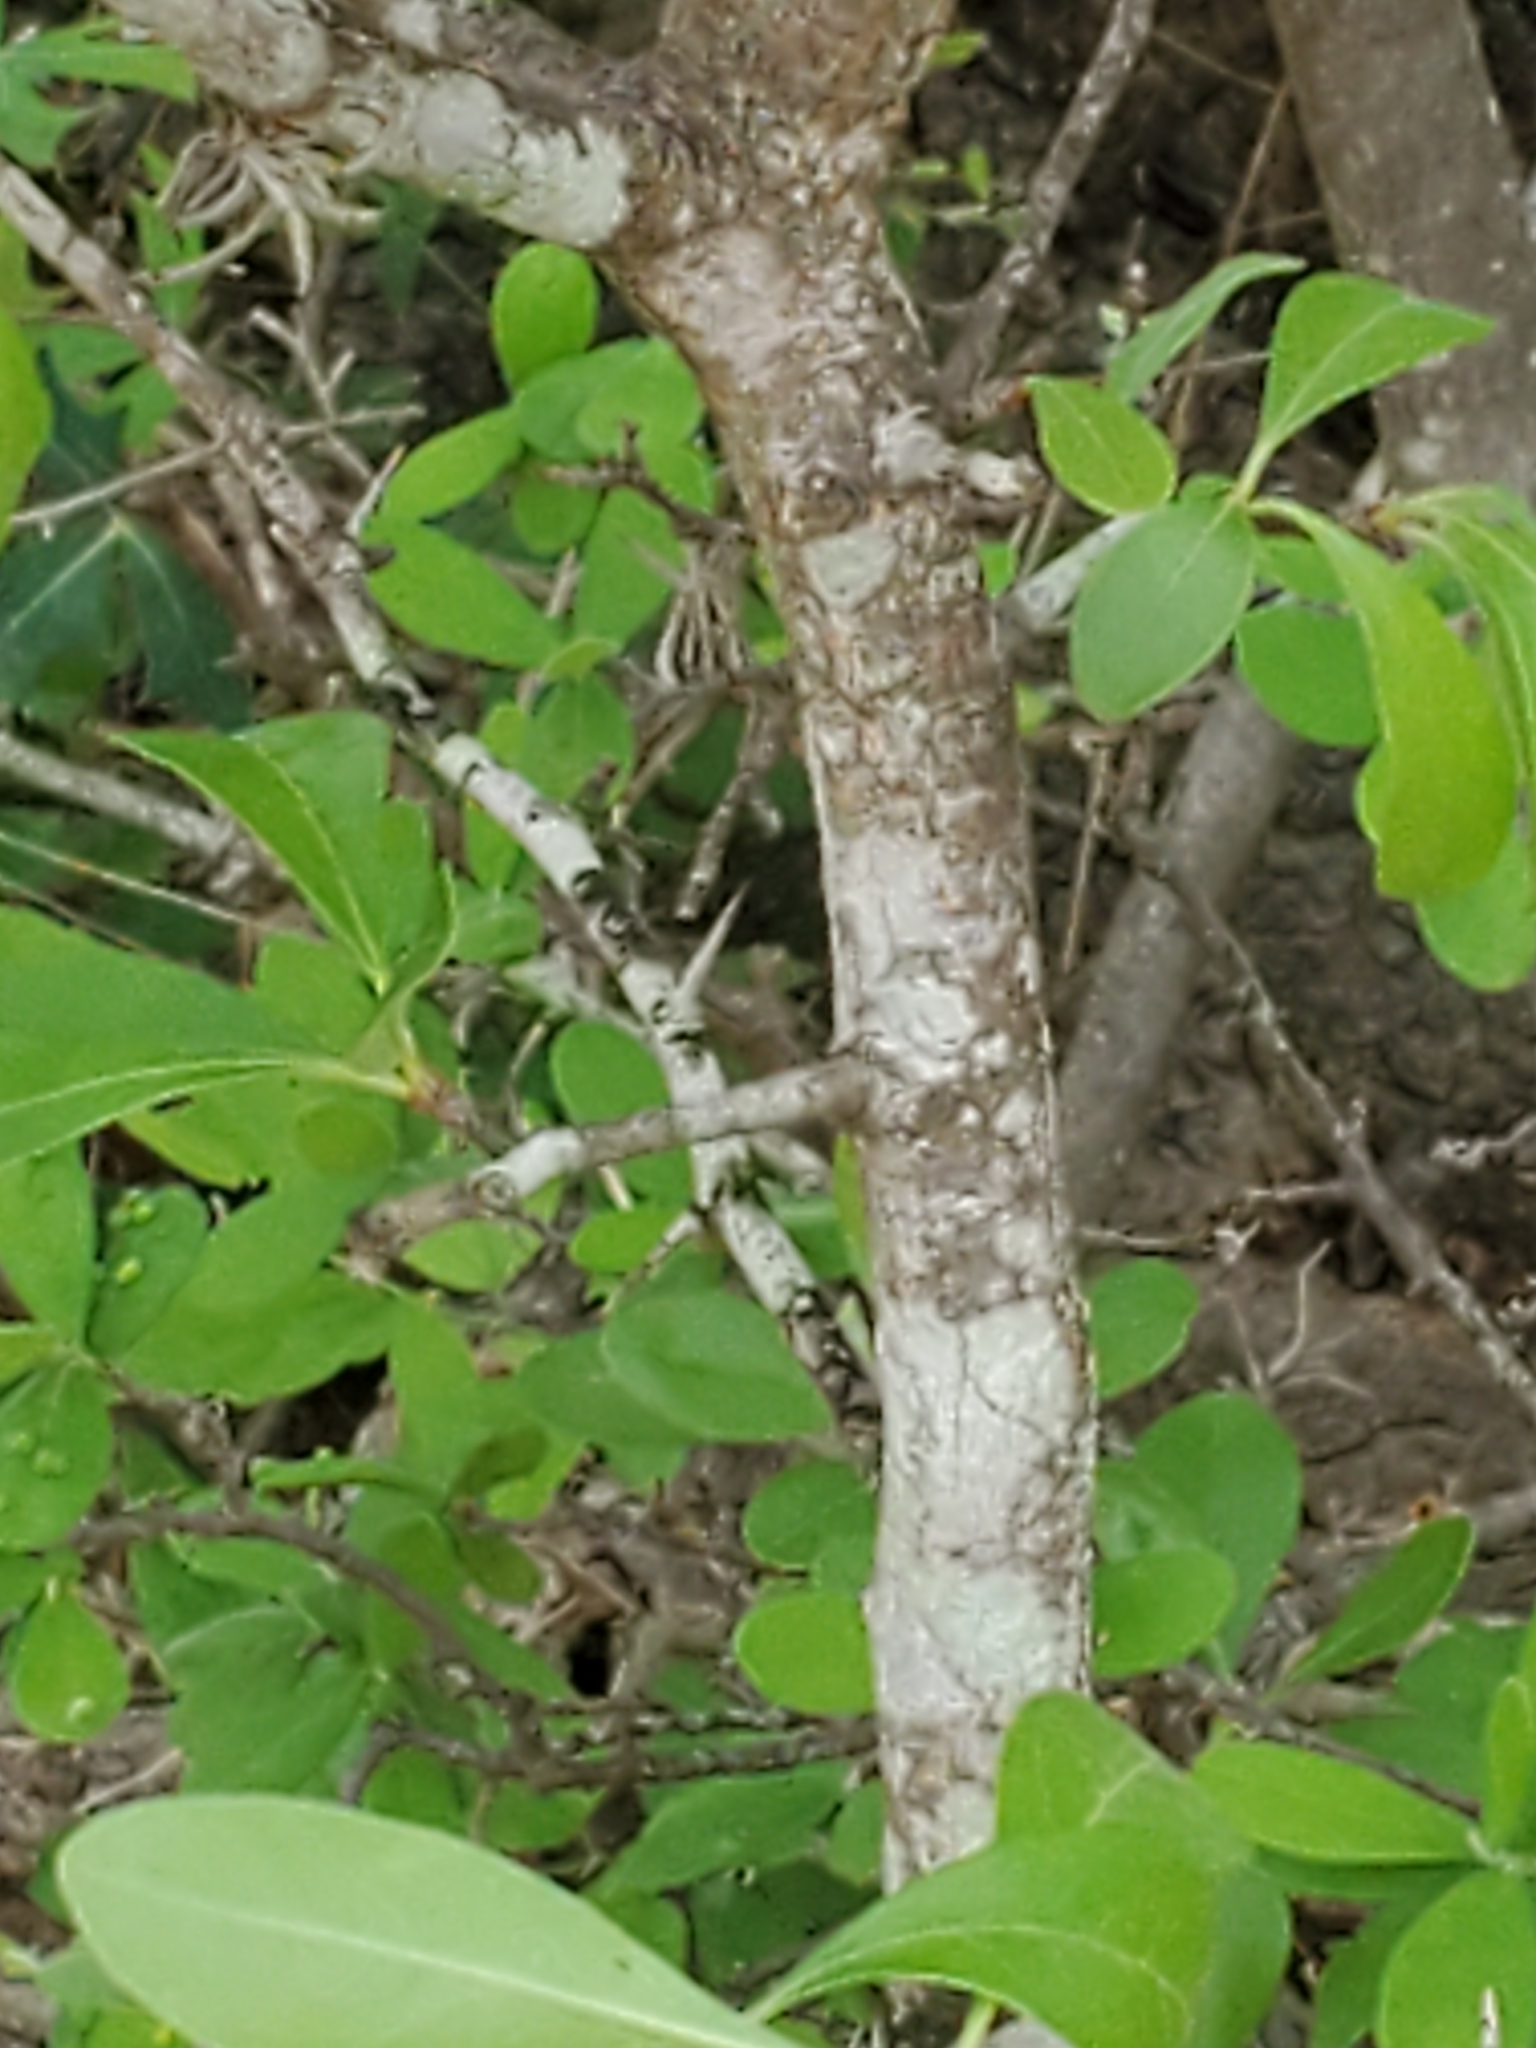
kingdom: Plantae
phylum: Tracheophyta
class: Magnoliopsida
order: Ericales
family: Sapotaceae
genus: Sideroxylon
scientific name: Sideroxylon lanuginosum
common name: Chittamwood
